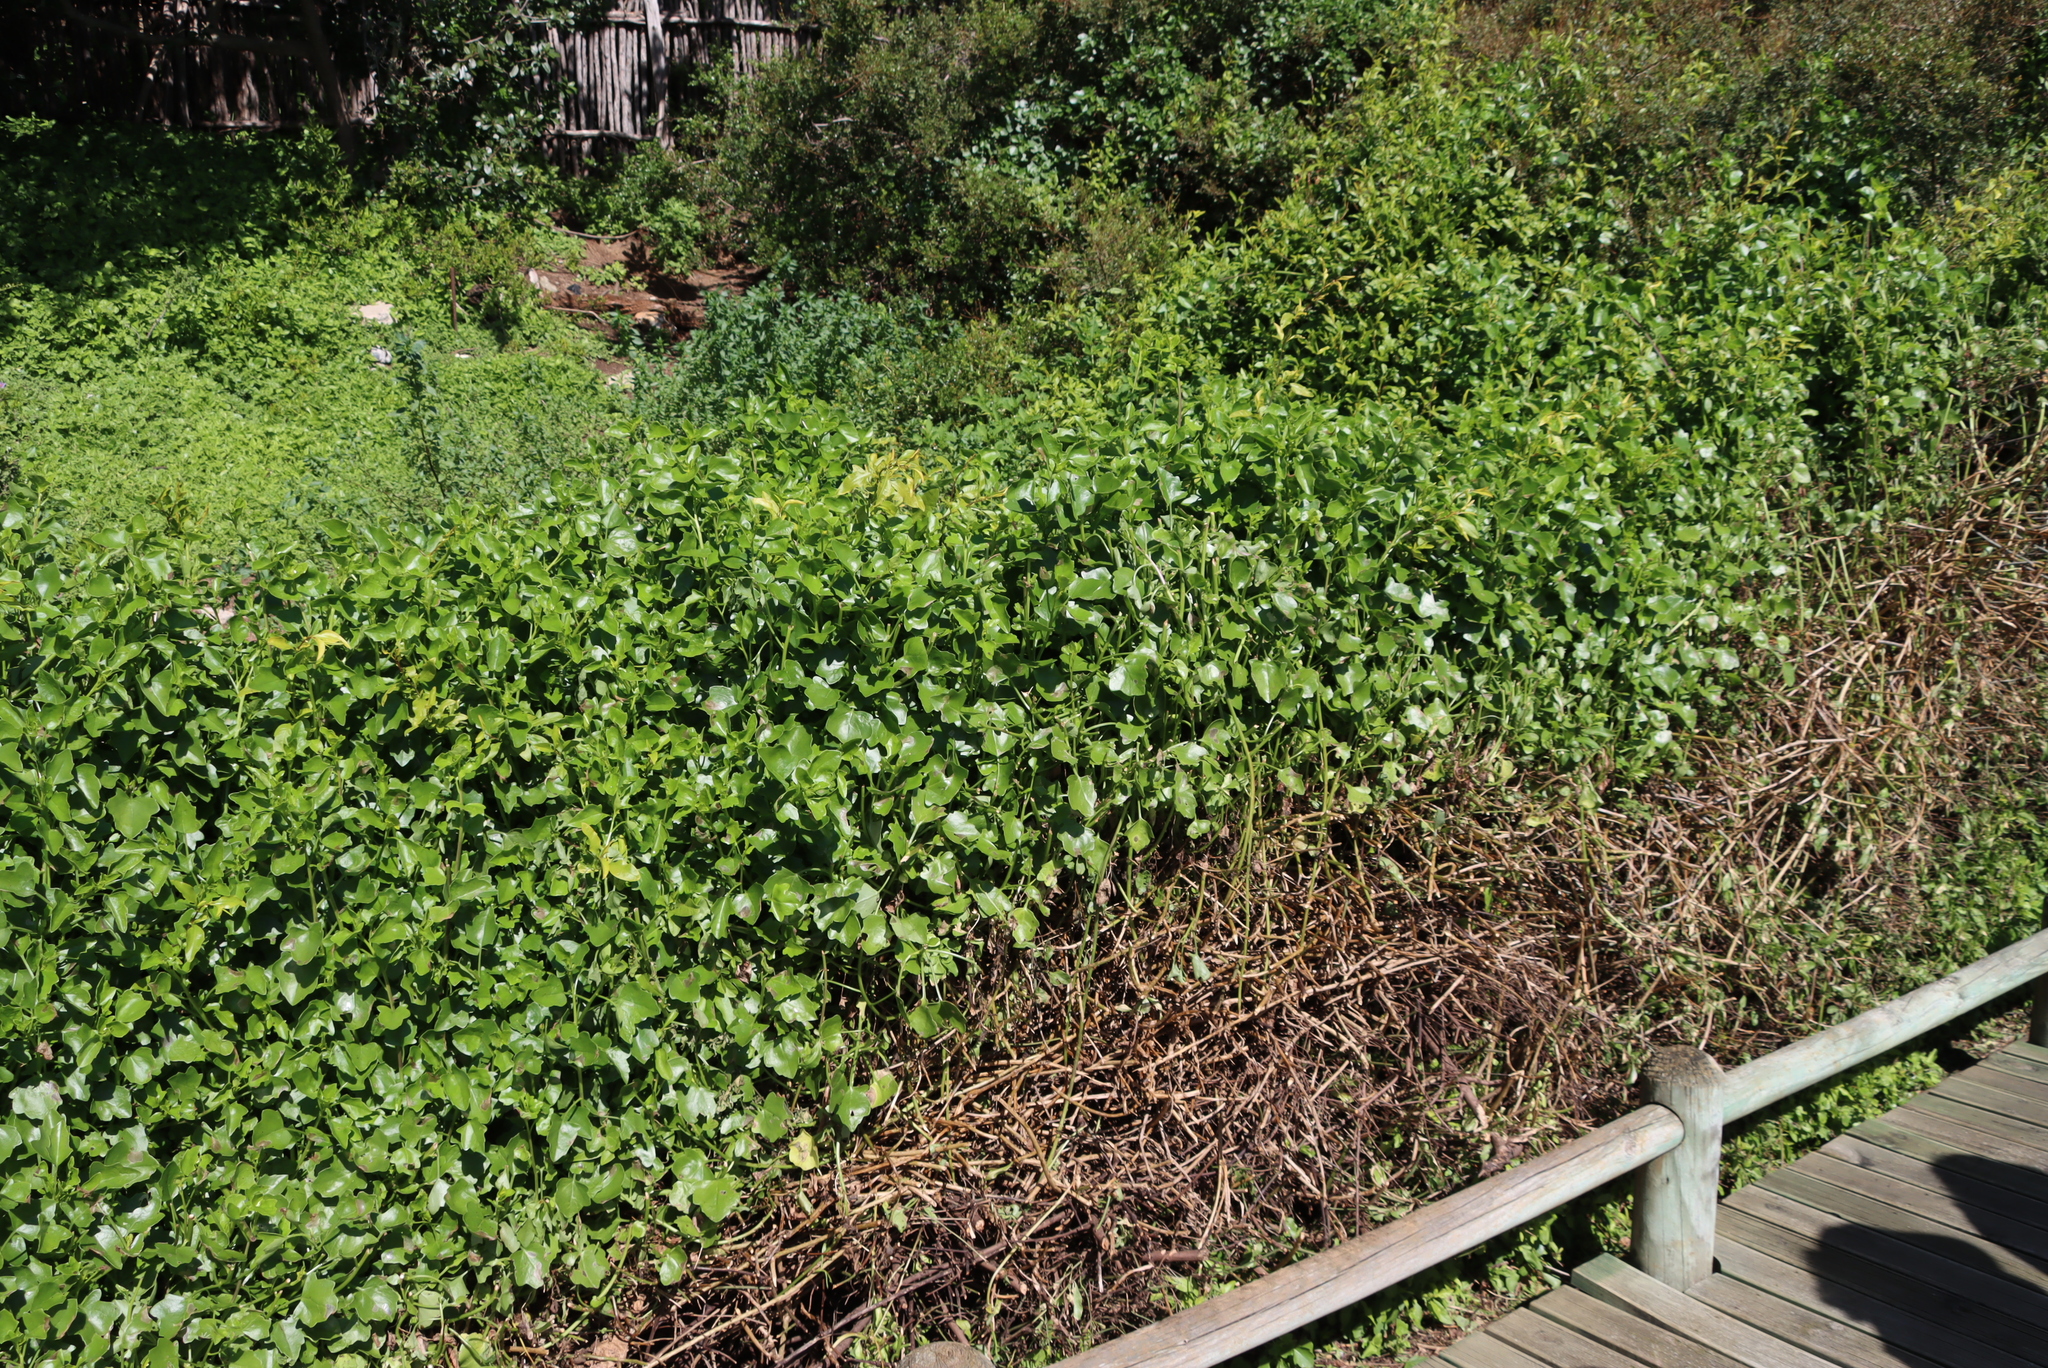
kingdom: Plantae
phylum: Tracheophyta
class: Magnoliopsida
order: Asterales
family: Asteraceae
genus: Senecio
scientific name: Senecio tamoides
